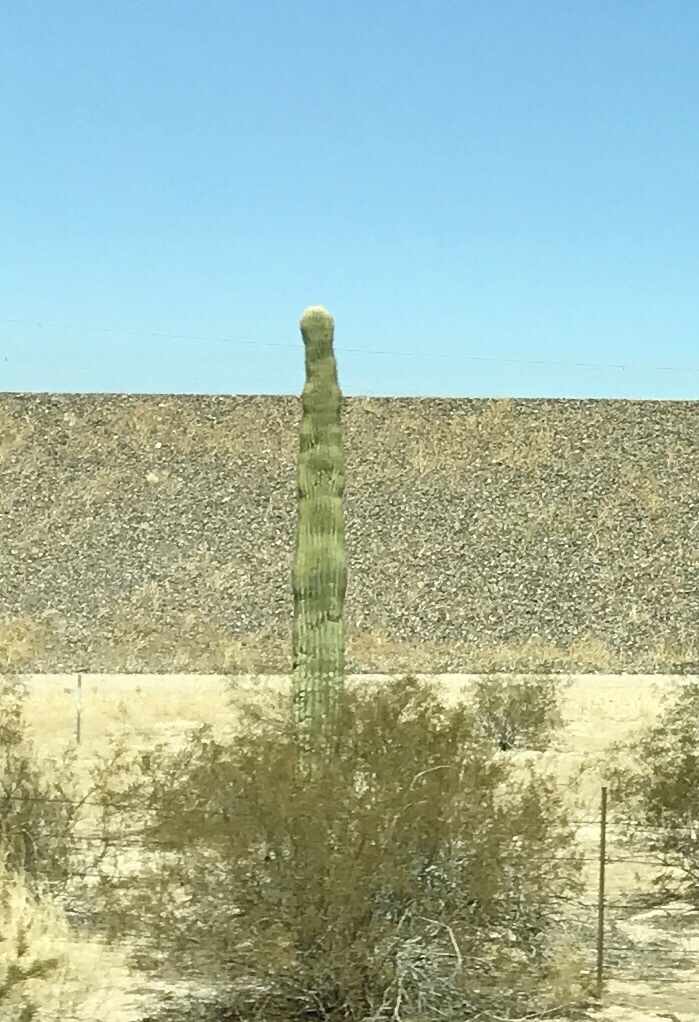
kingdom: Plantae
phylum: Tracheophyta
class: Magnoliopsida
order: Caryophyllales
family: Cactaceae
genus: Carnegiea
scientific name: Carnegiea gigantea
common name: Saguaro
